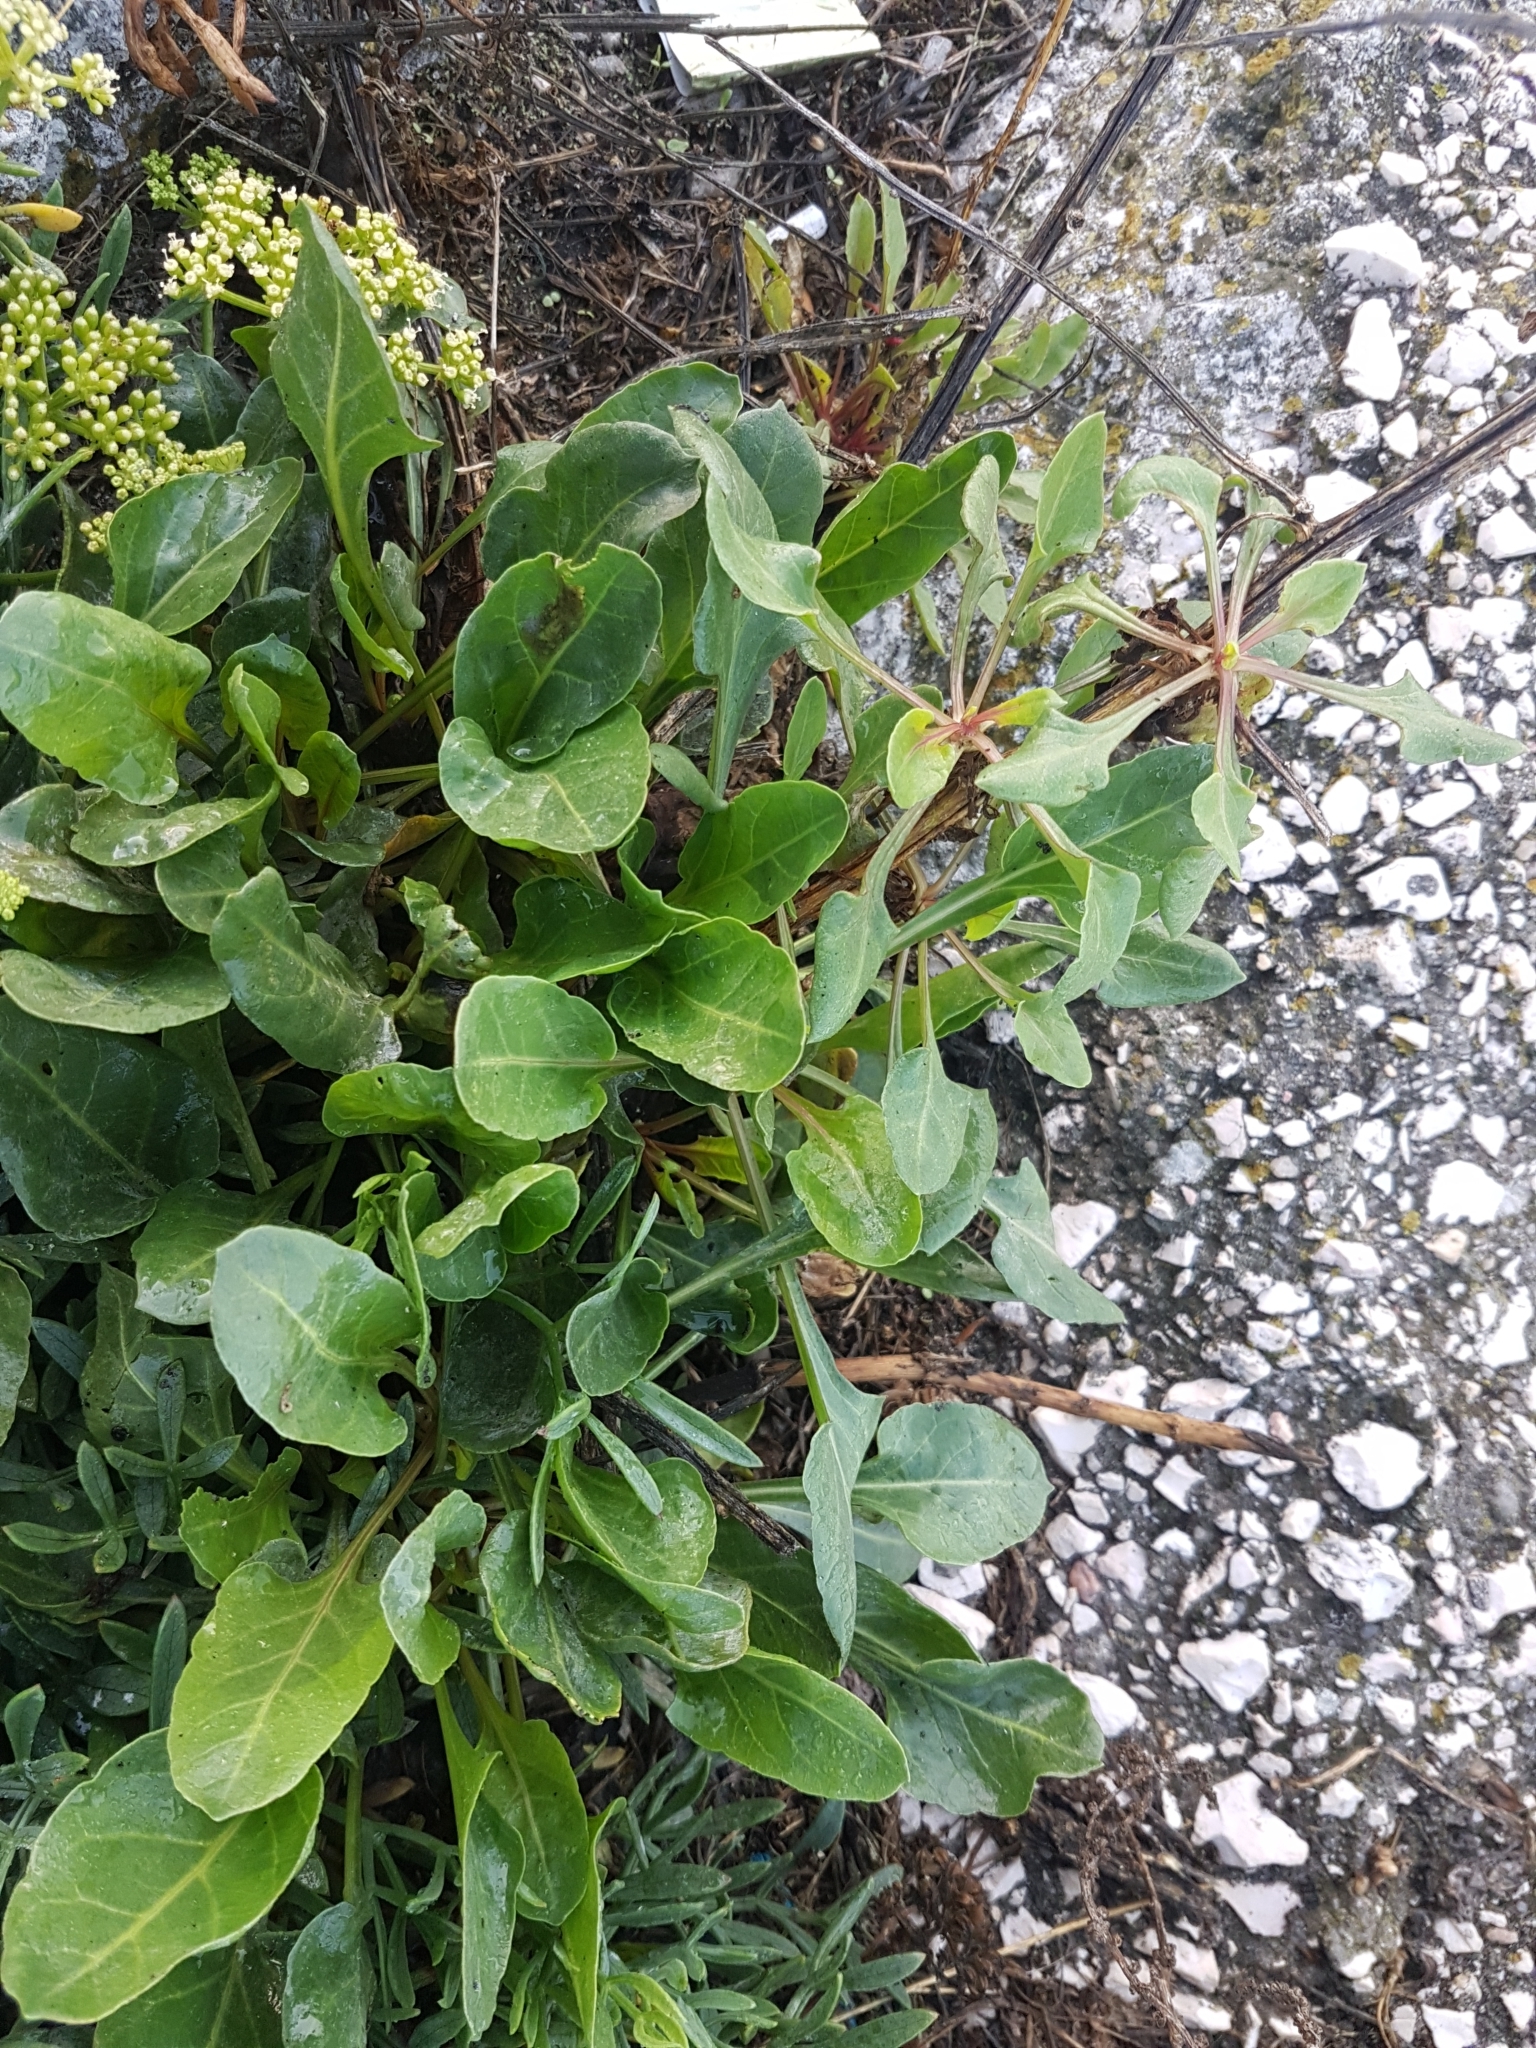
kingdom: Plantae
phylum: Tracheophyta
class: Magnoliopsida
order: Caryophyllales
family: Amaranthaceae
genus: Beta
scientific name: Beta vulgaris
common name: Beet
